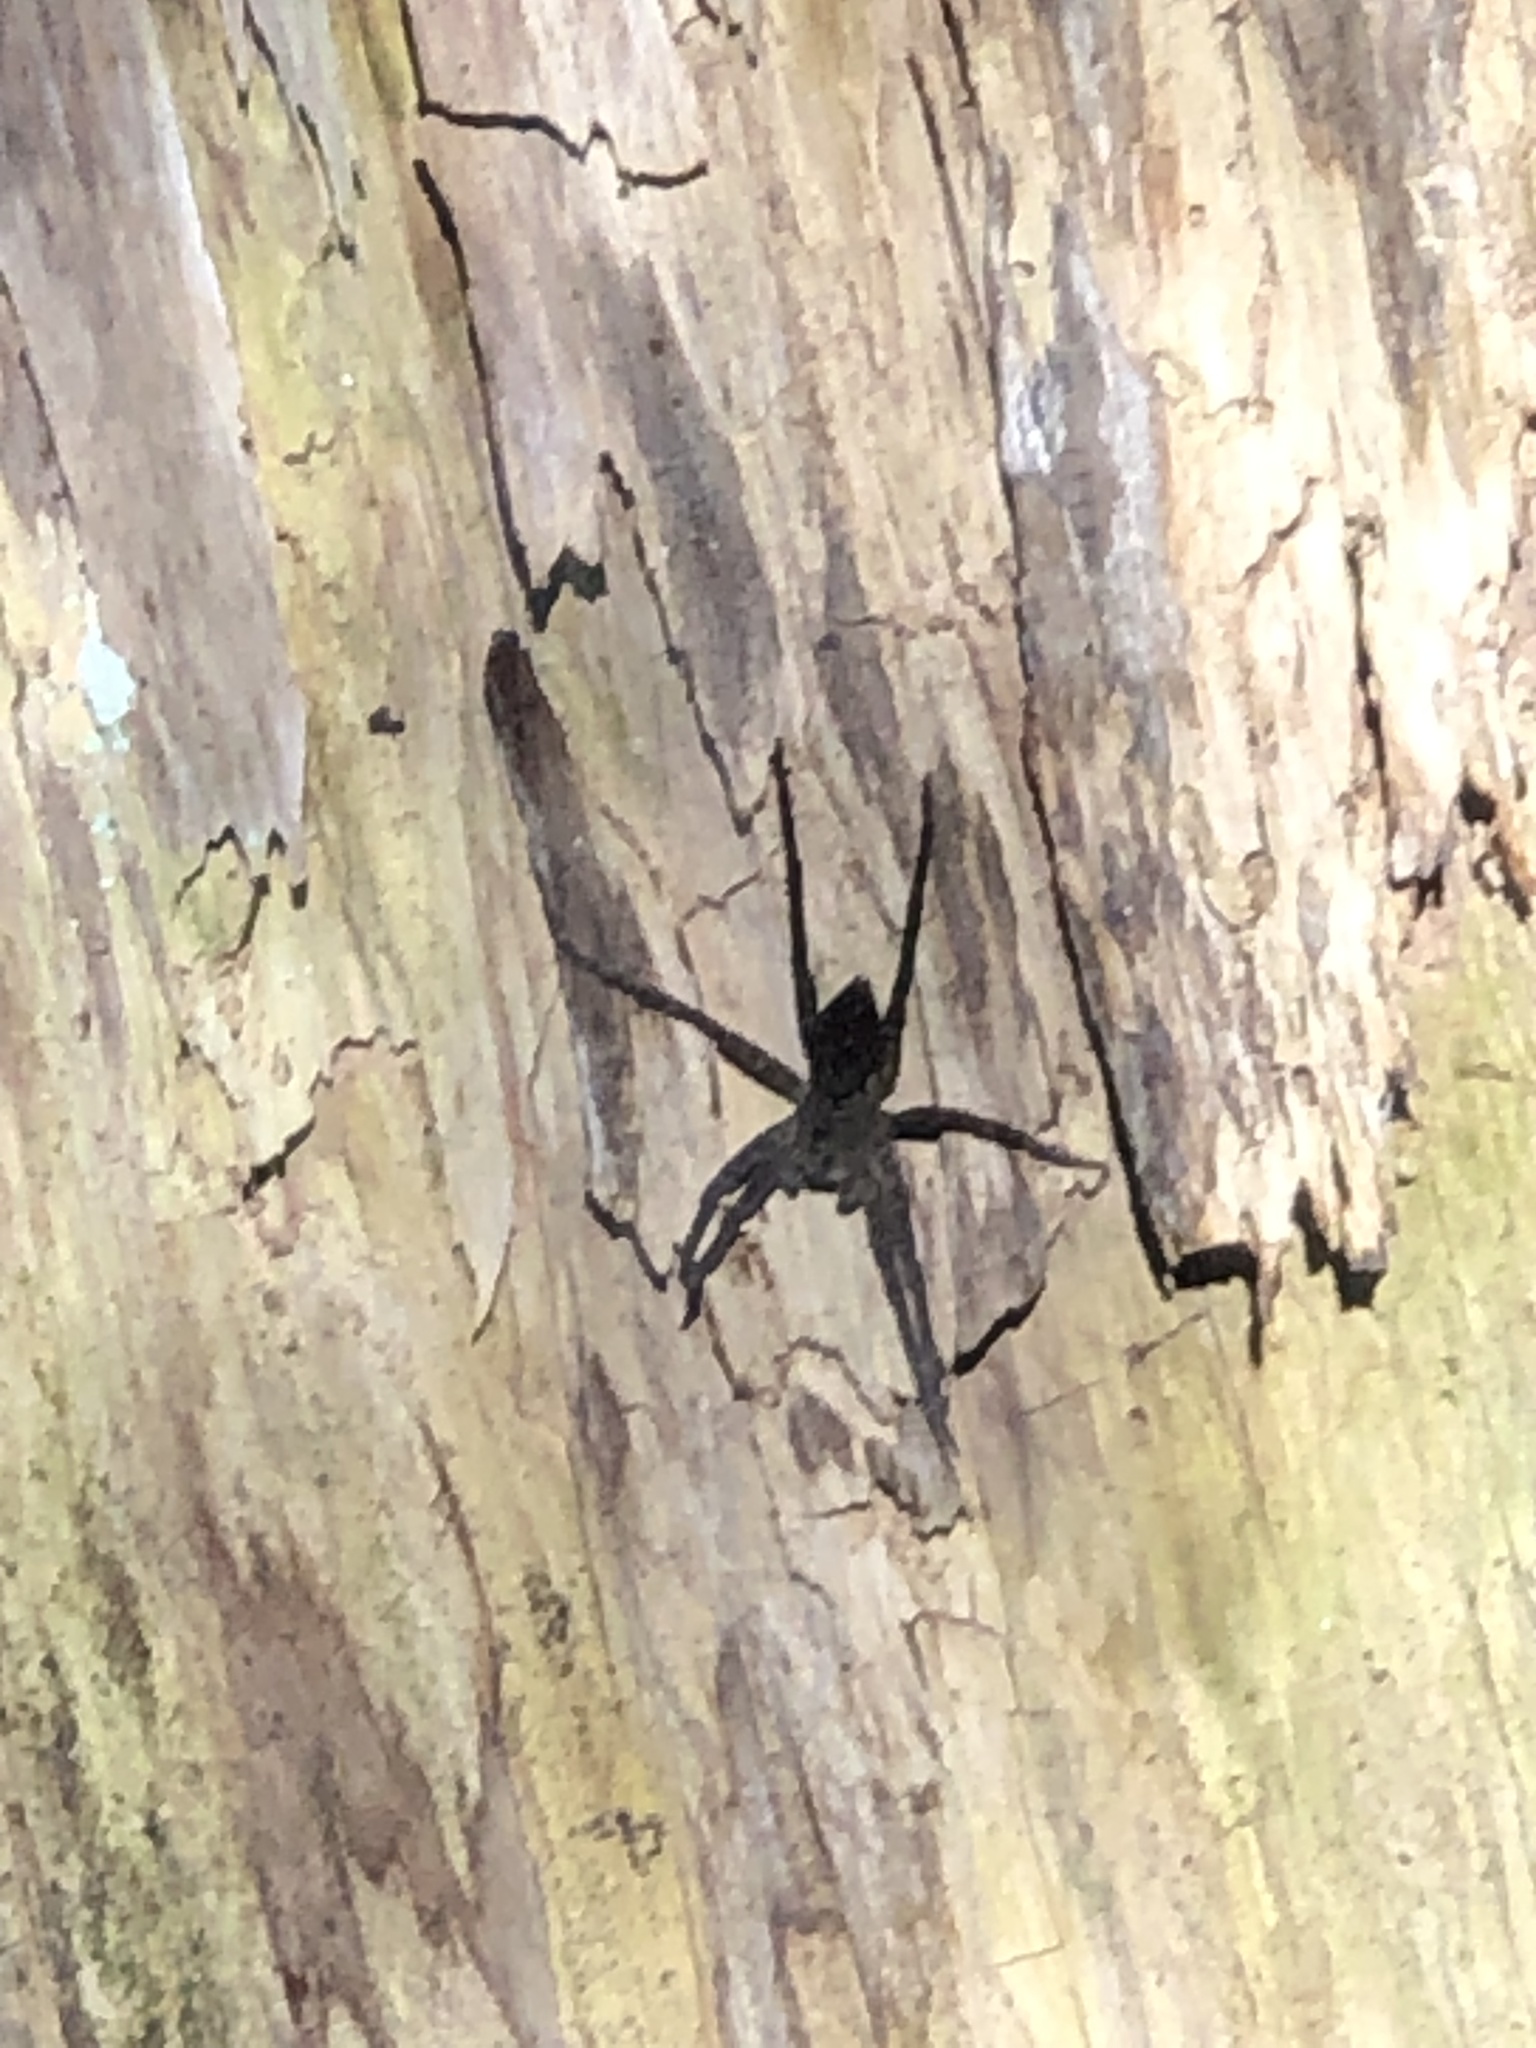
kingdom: Animalia
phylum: Arthropoda
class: Arachnida
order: Araneae
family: Pisauridae
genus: Dolomedes
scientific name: Dolomedes vittatus
